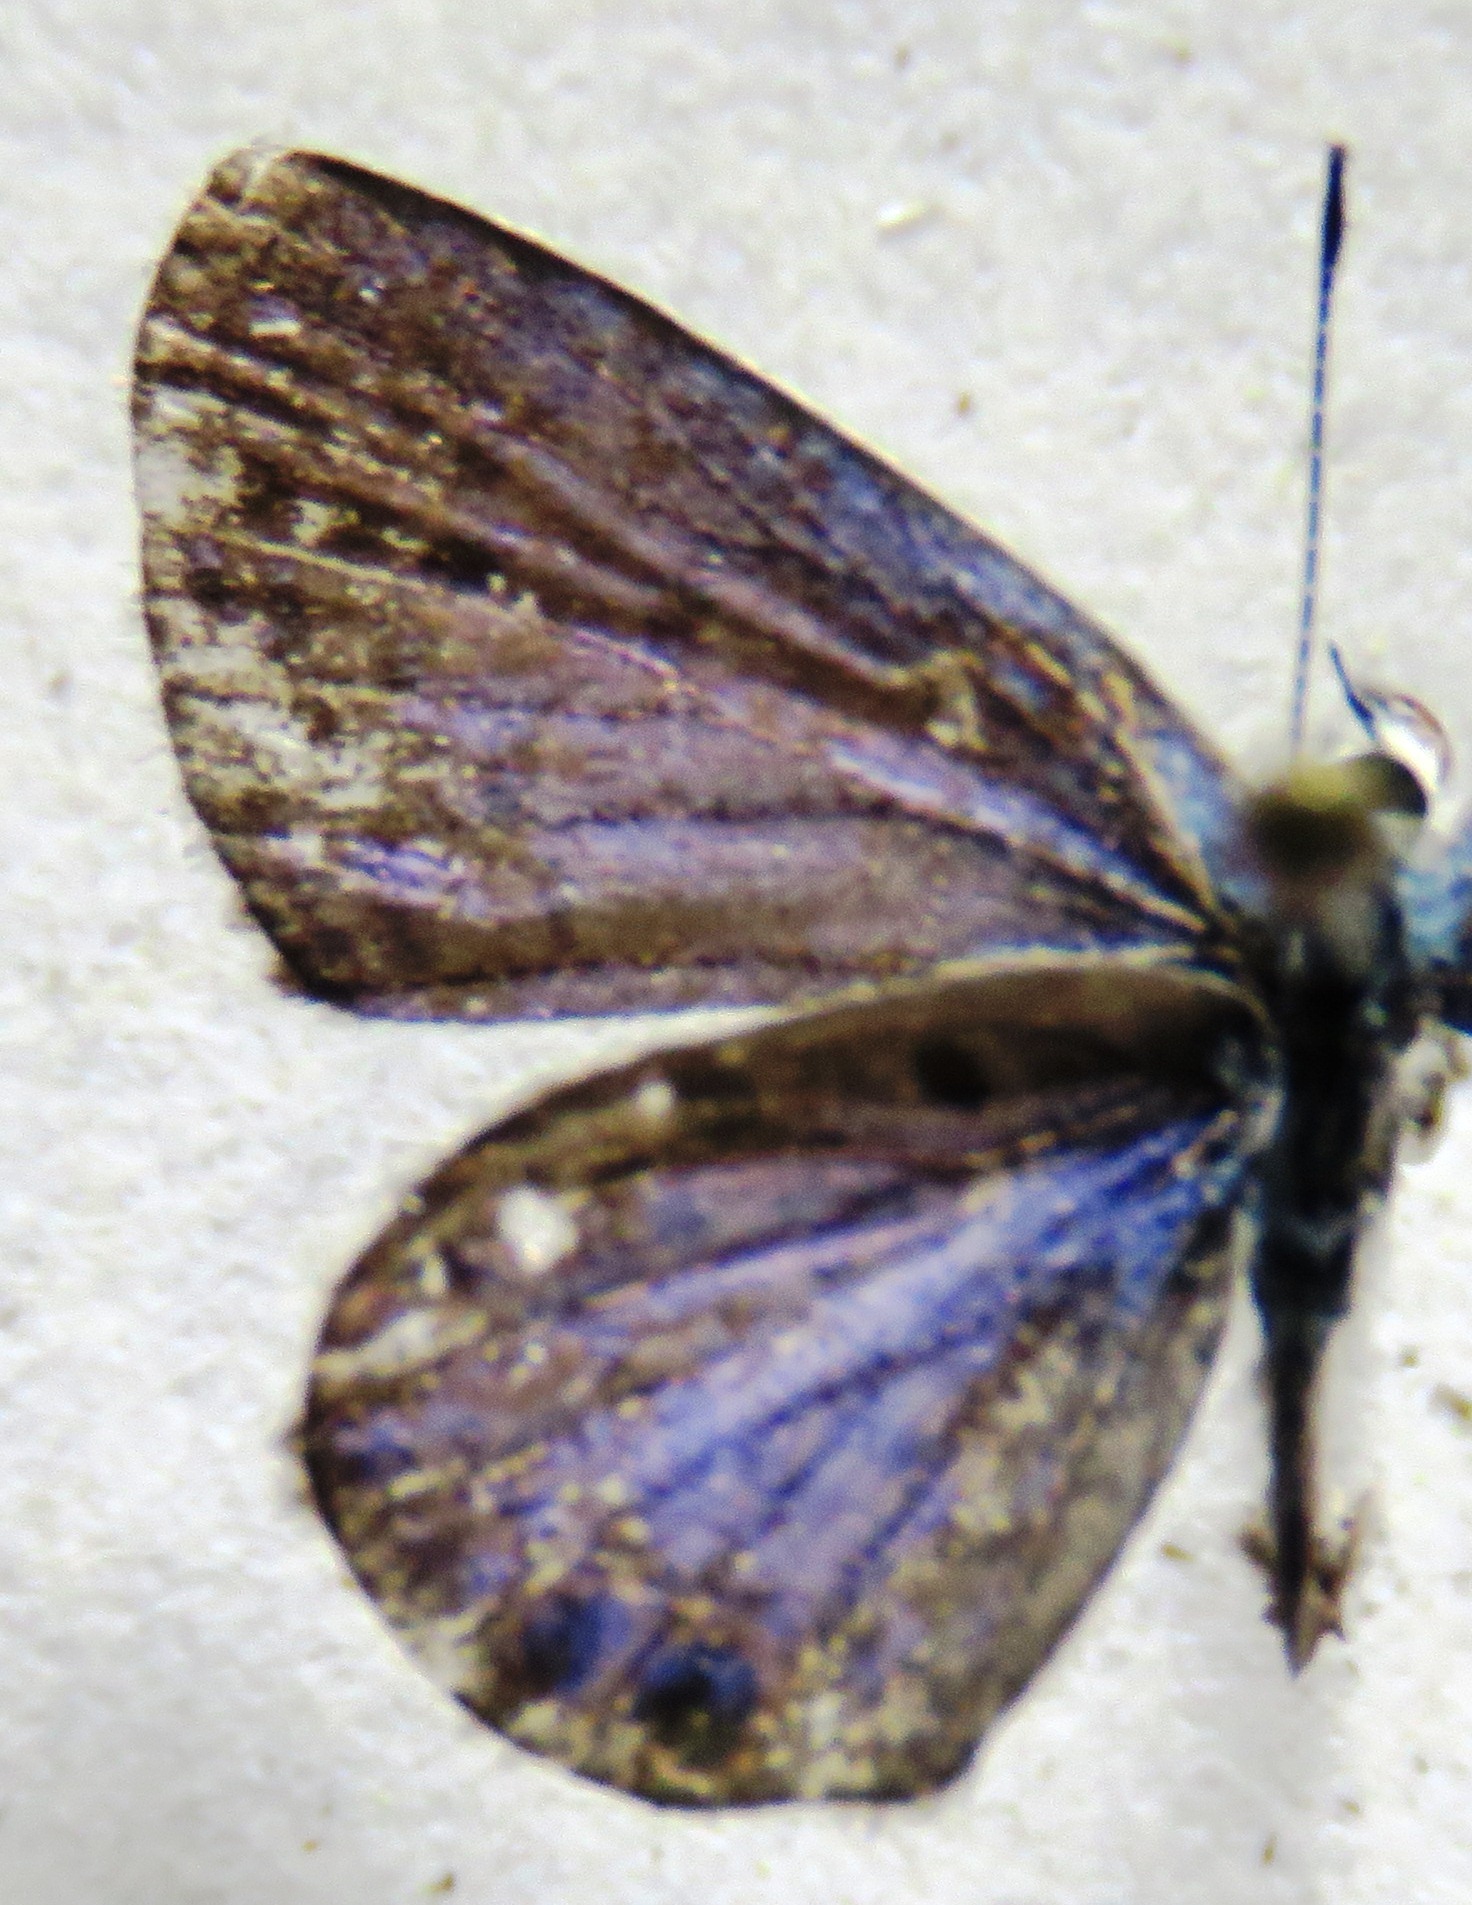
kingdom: Animalia
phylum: Arthropoda
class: Insecta
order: Lepidoptera
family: Lycaenidae
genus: Hemiargus
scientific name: Hemiargus ceraunus
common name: Ceraunus blue
